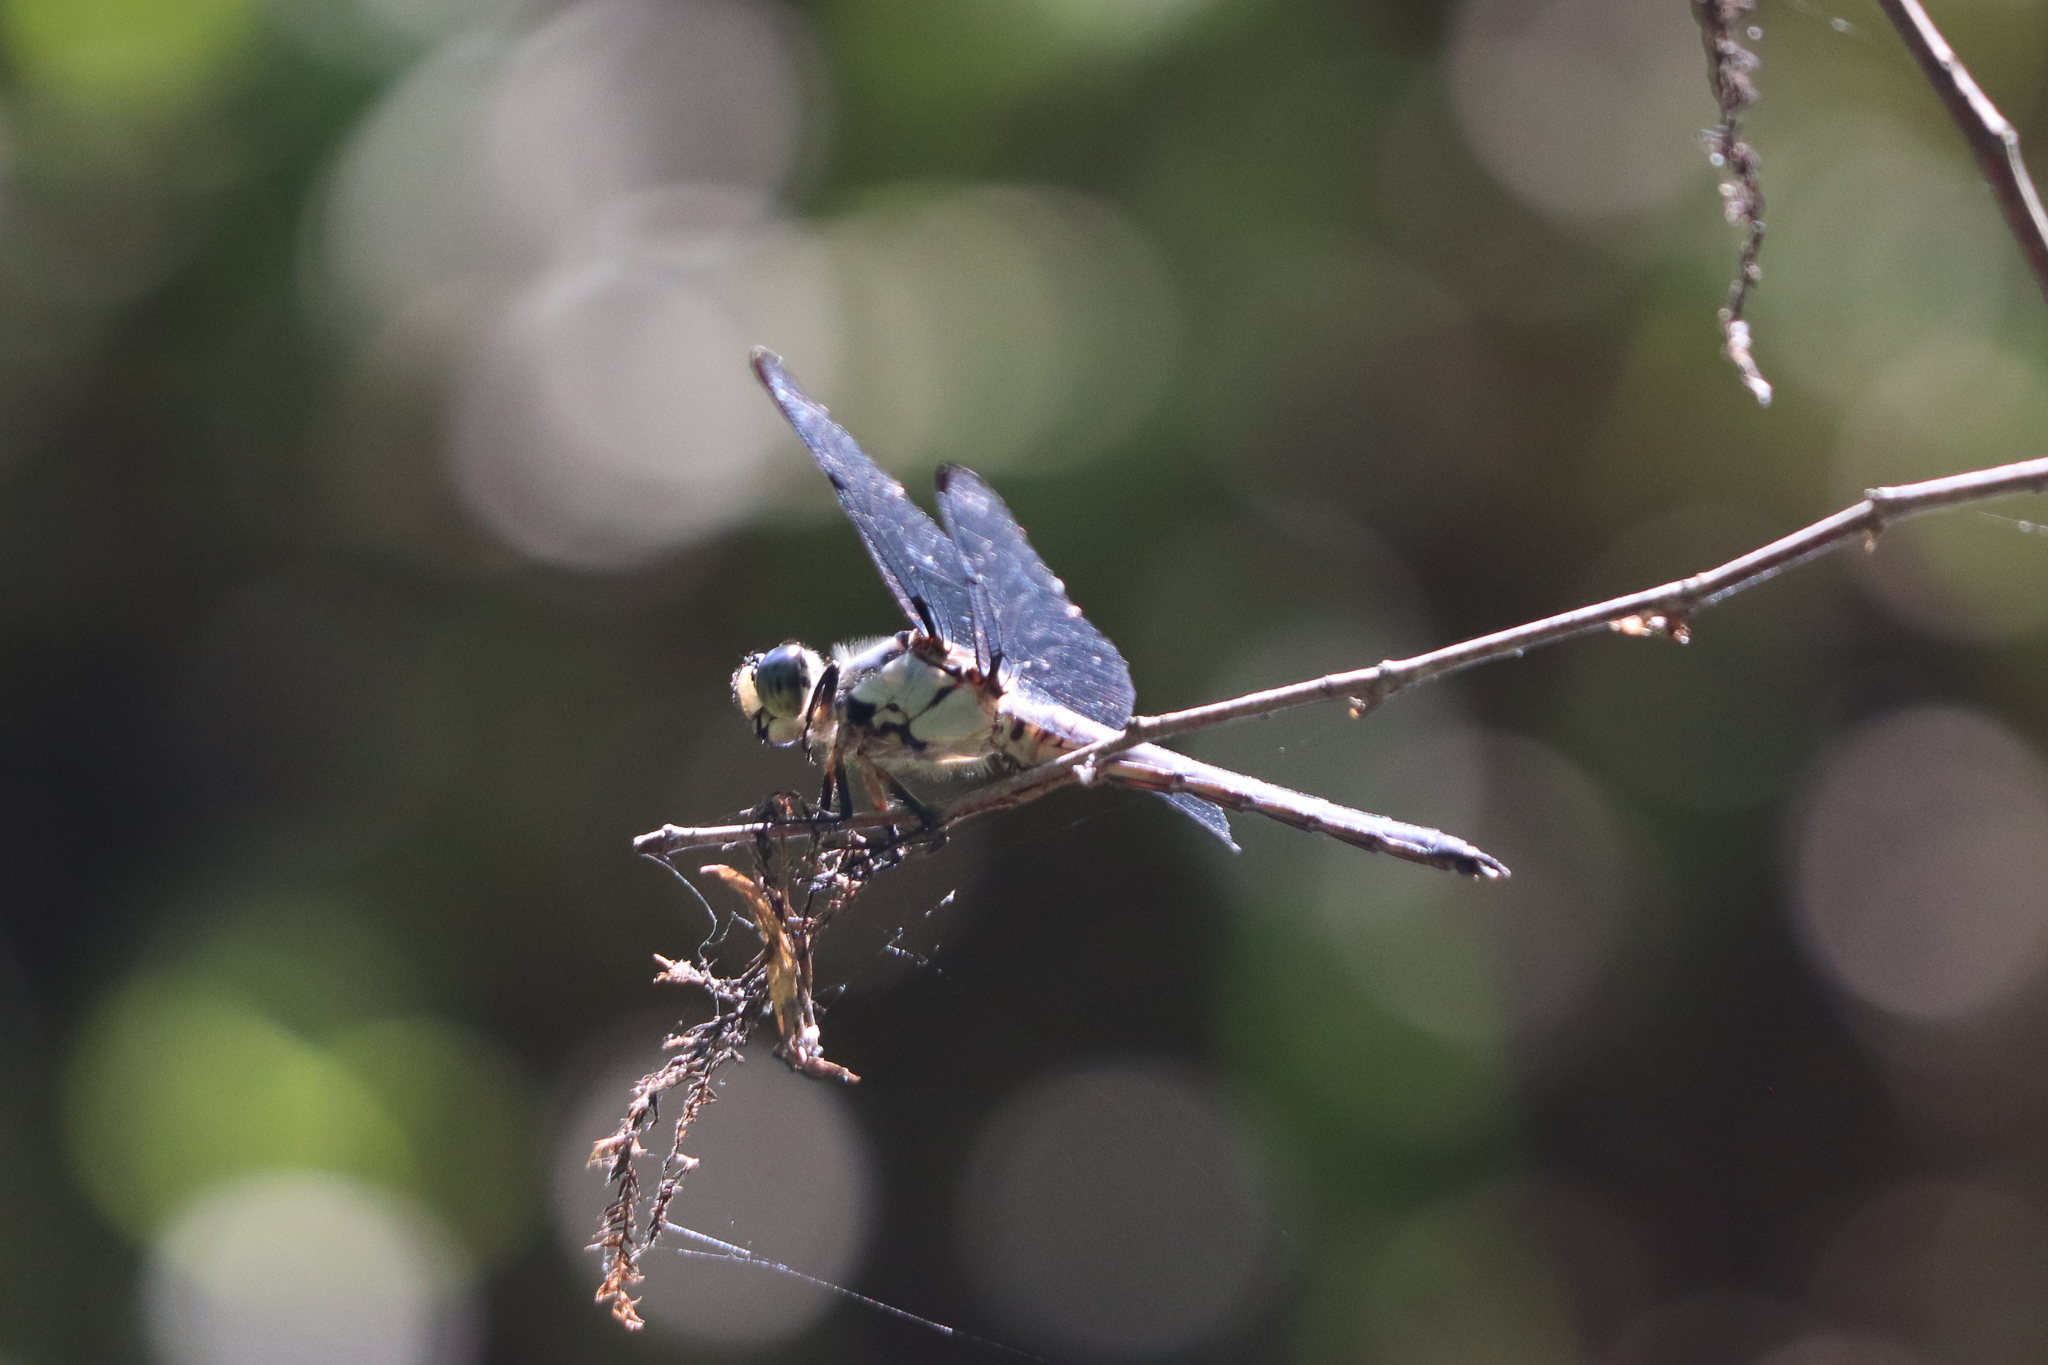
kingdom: Animalia
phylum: Arthropoda
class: Insecta
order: Odonata
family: Libellulidae
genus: Libellula
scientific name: Libellula vibrans
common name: Great blue skimmer
